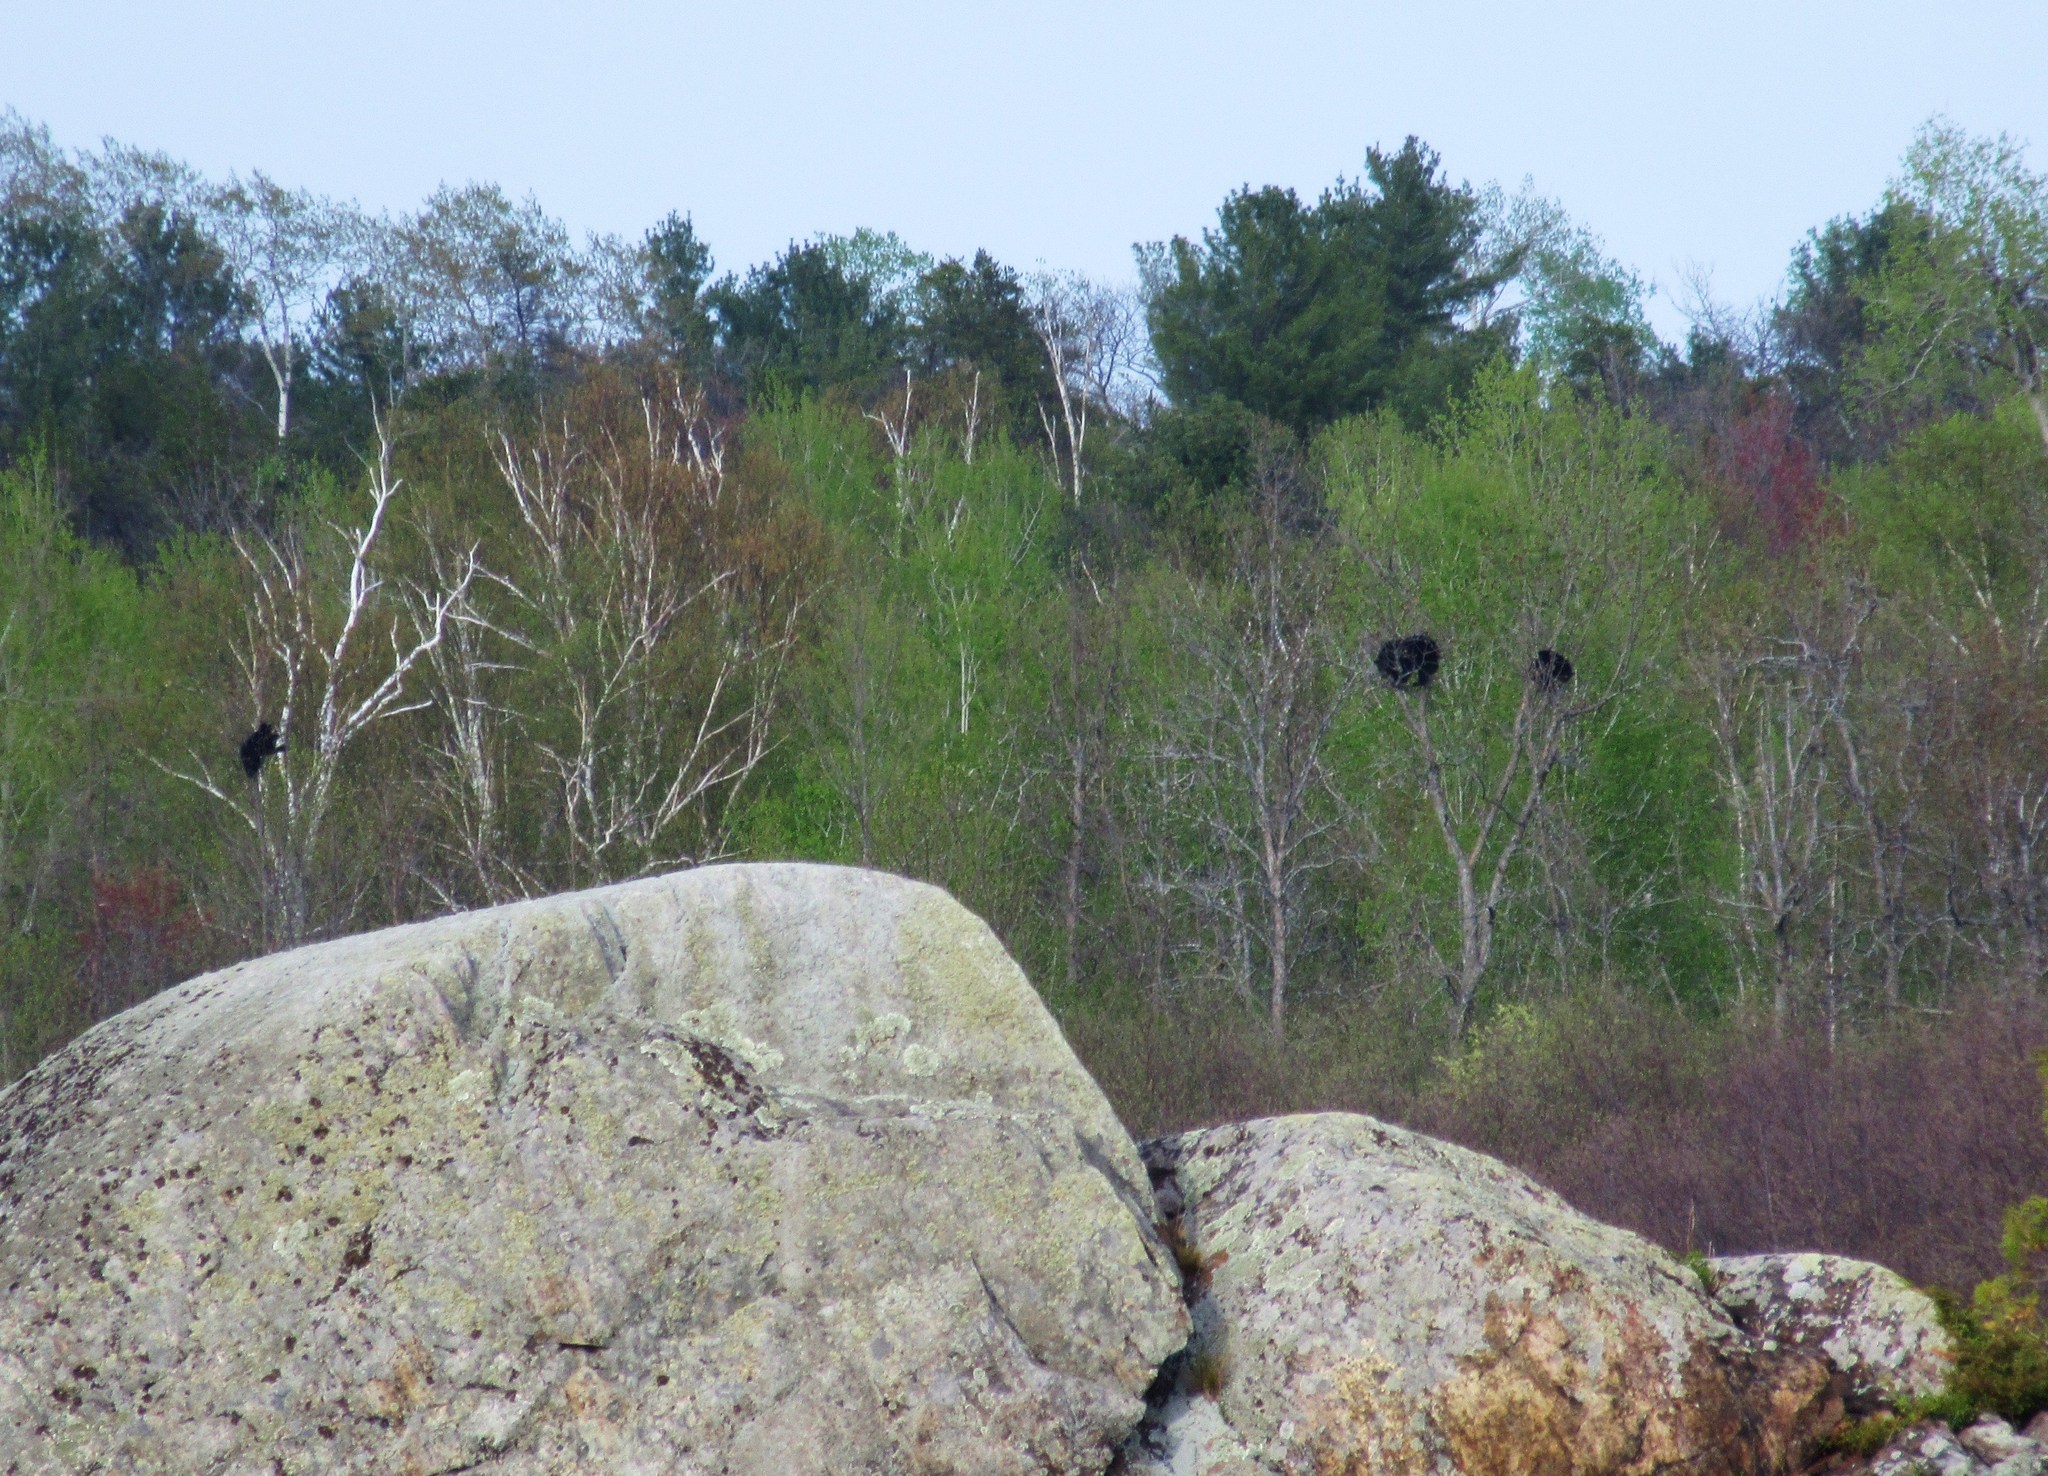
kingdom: Animalia
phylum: Chordata
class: Mammalia
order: Carnivora
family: Ursidae
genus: Ursus
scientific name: Ursus americanus
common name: American black bear
